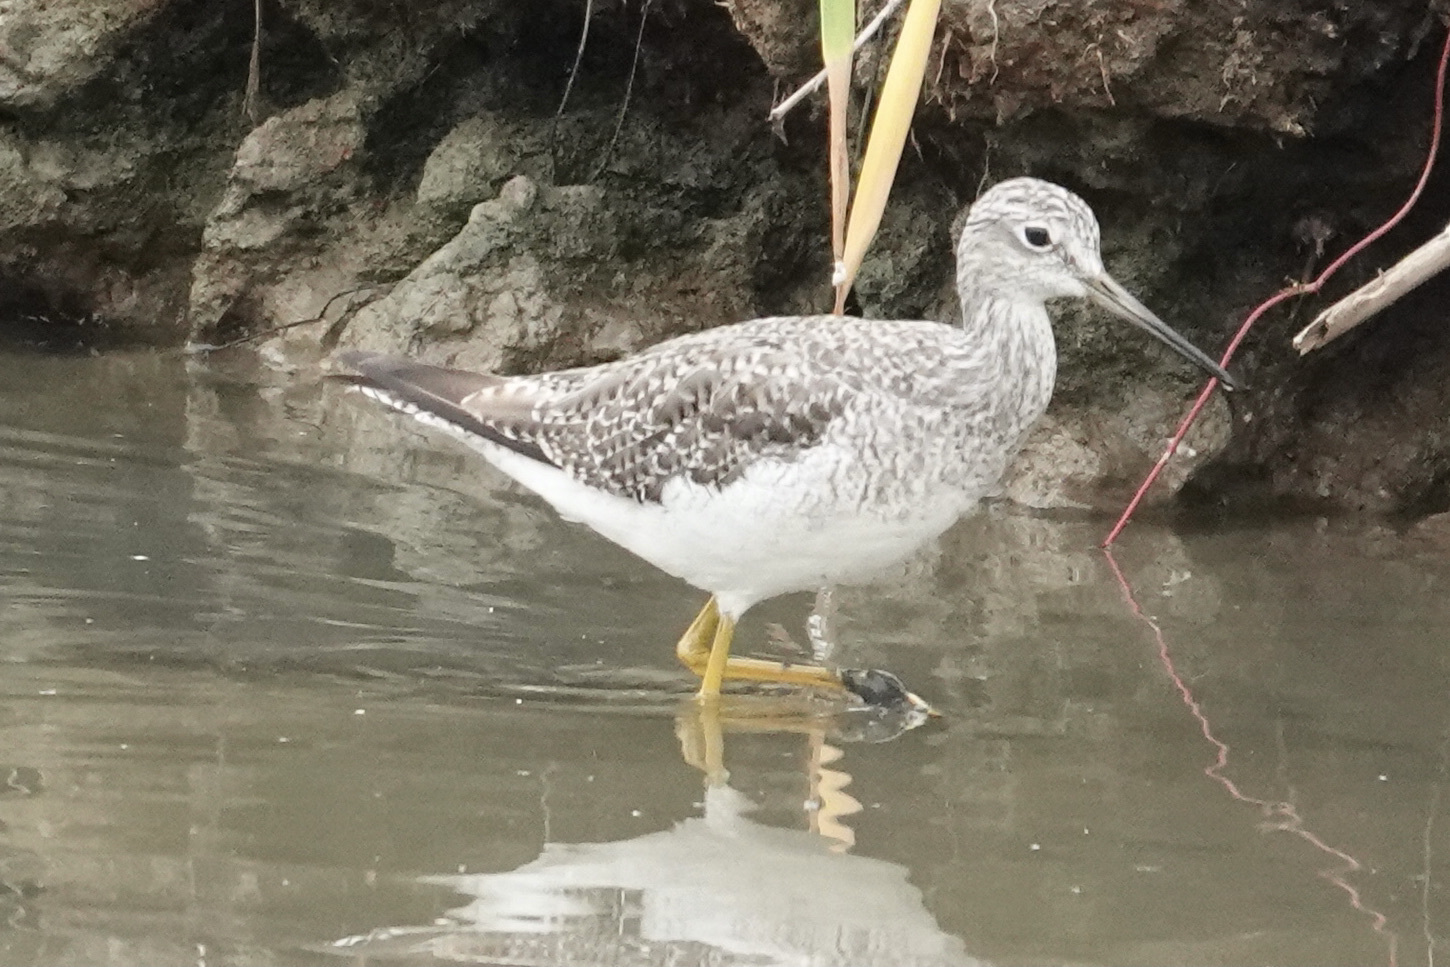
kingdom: Animalia
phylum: Chordata
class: Aves
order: Charadriiformes
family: Scolopacidae
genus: Tringa
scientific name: Tringa melanoleuca
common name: Greater yellowlegs
